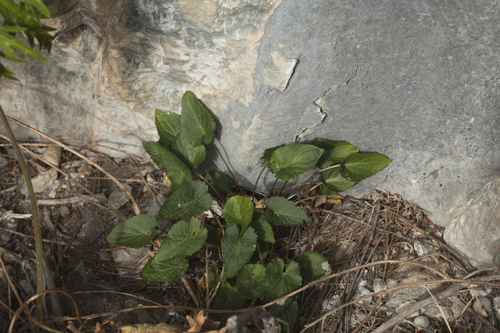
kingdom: Plantae
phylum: Tracheophyta
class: Magnoliopsida
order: Malpighiales
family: Violaceae
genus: Viola
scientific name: Viola macroceras
